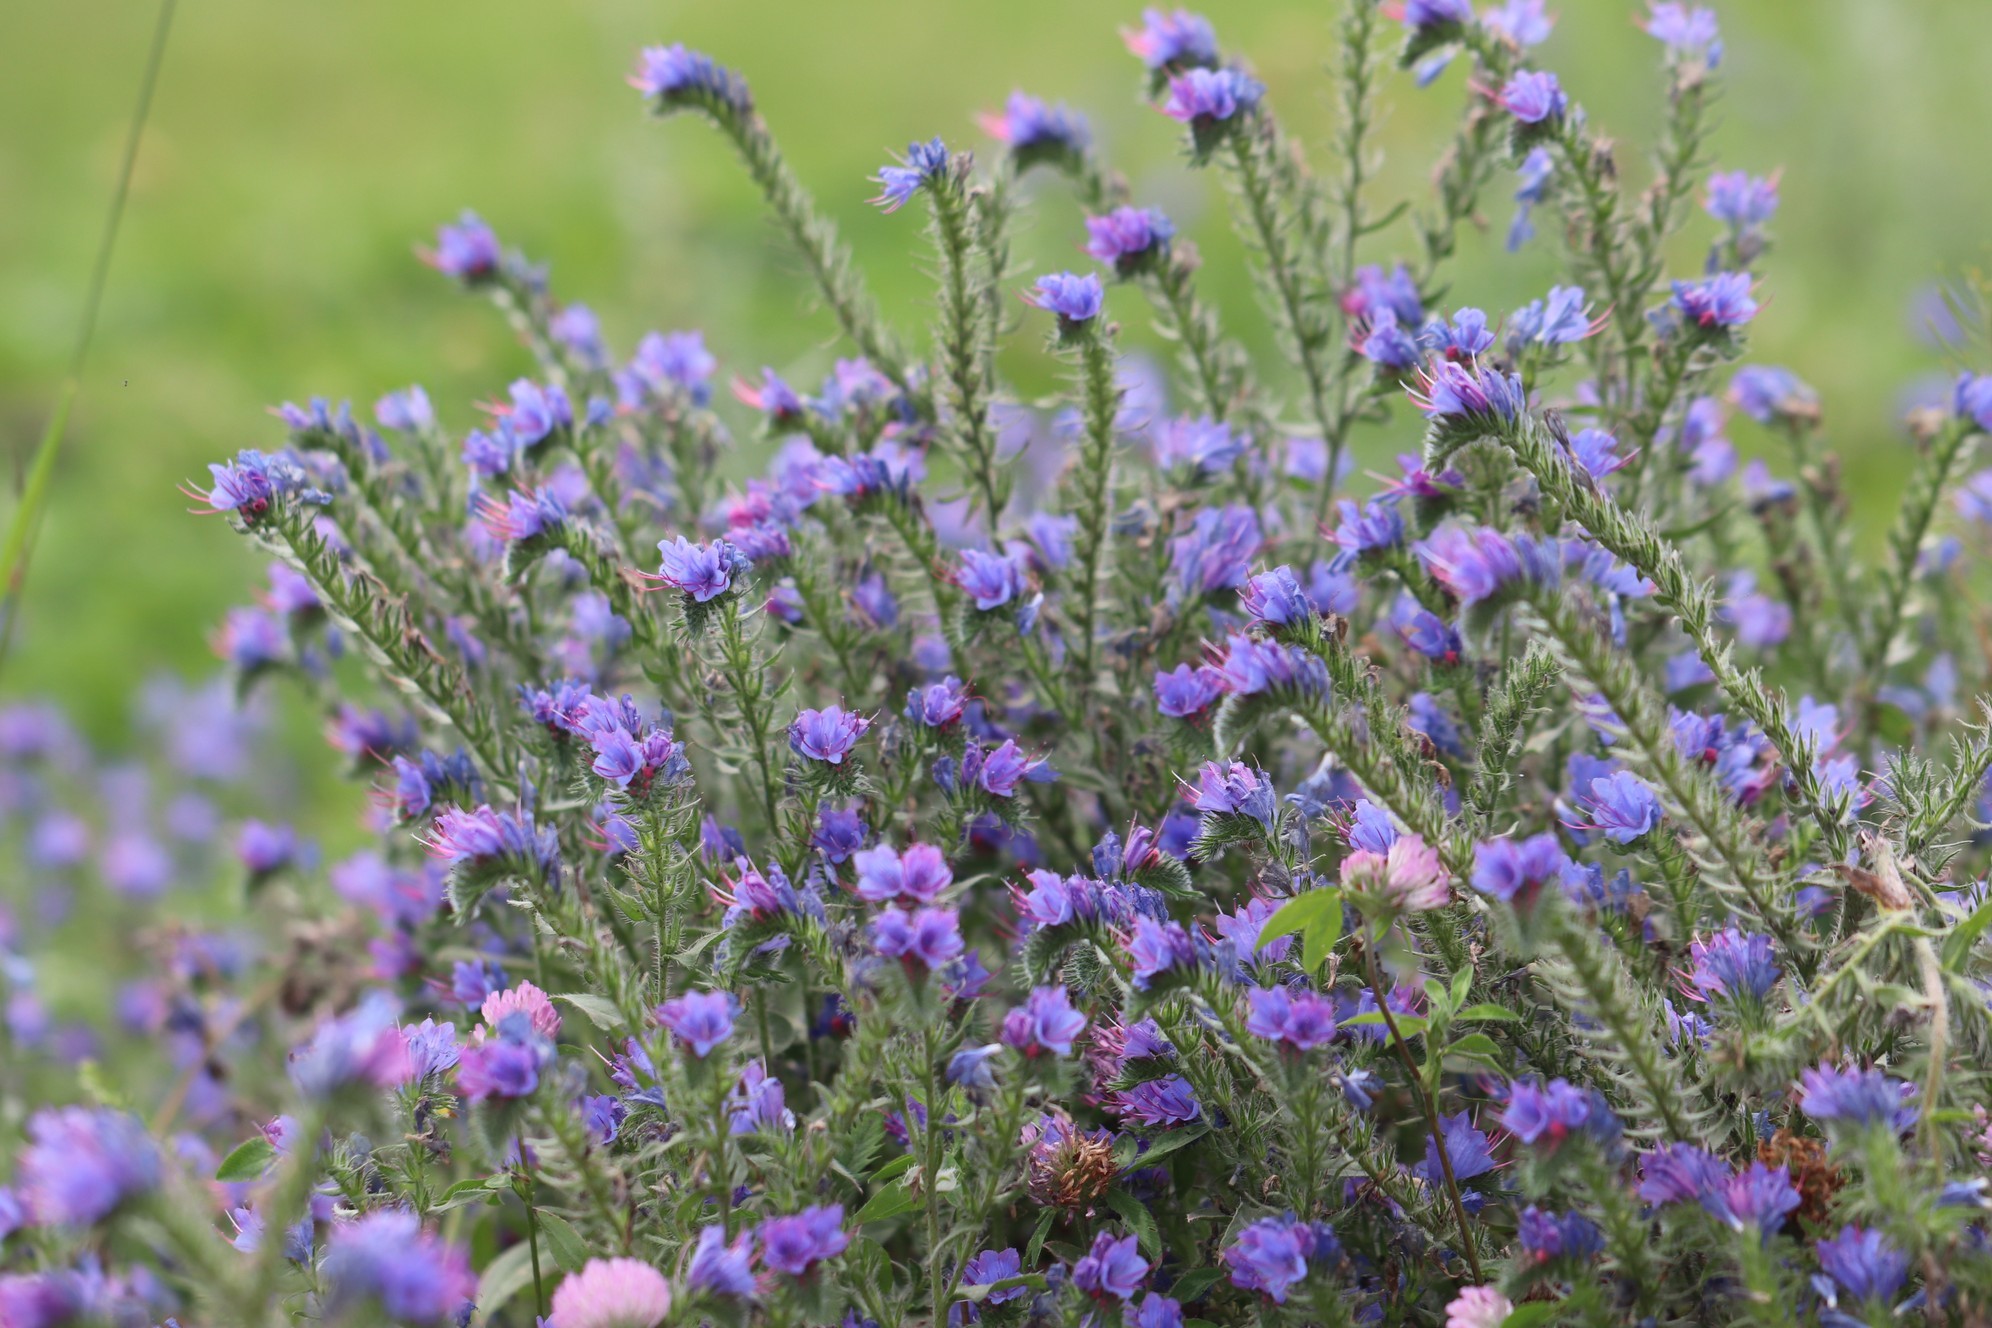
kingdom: Plantae
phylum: Tracheophyta
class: Magnoliopsida
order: Boraginales
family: Boraginaceae
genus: Echium
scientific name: Echium vulgare
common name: Common viper's bugloss
